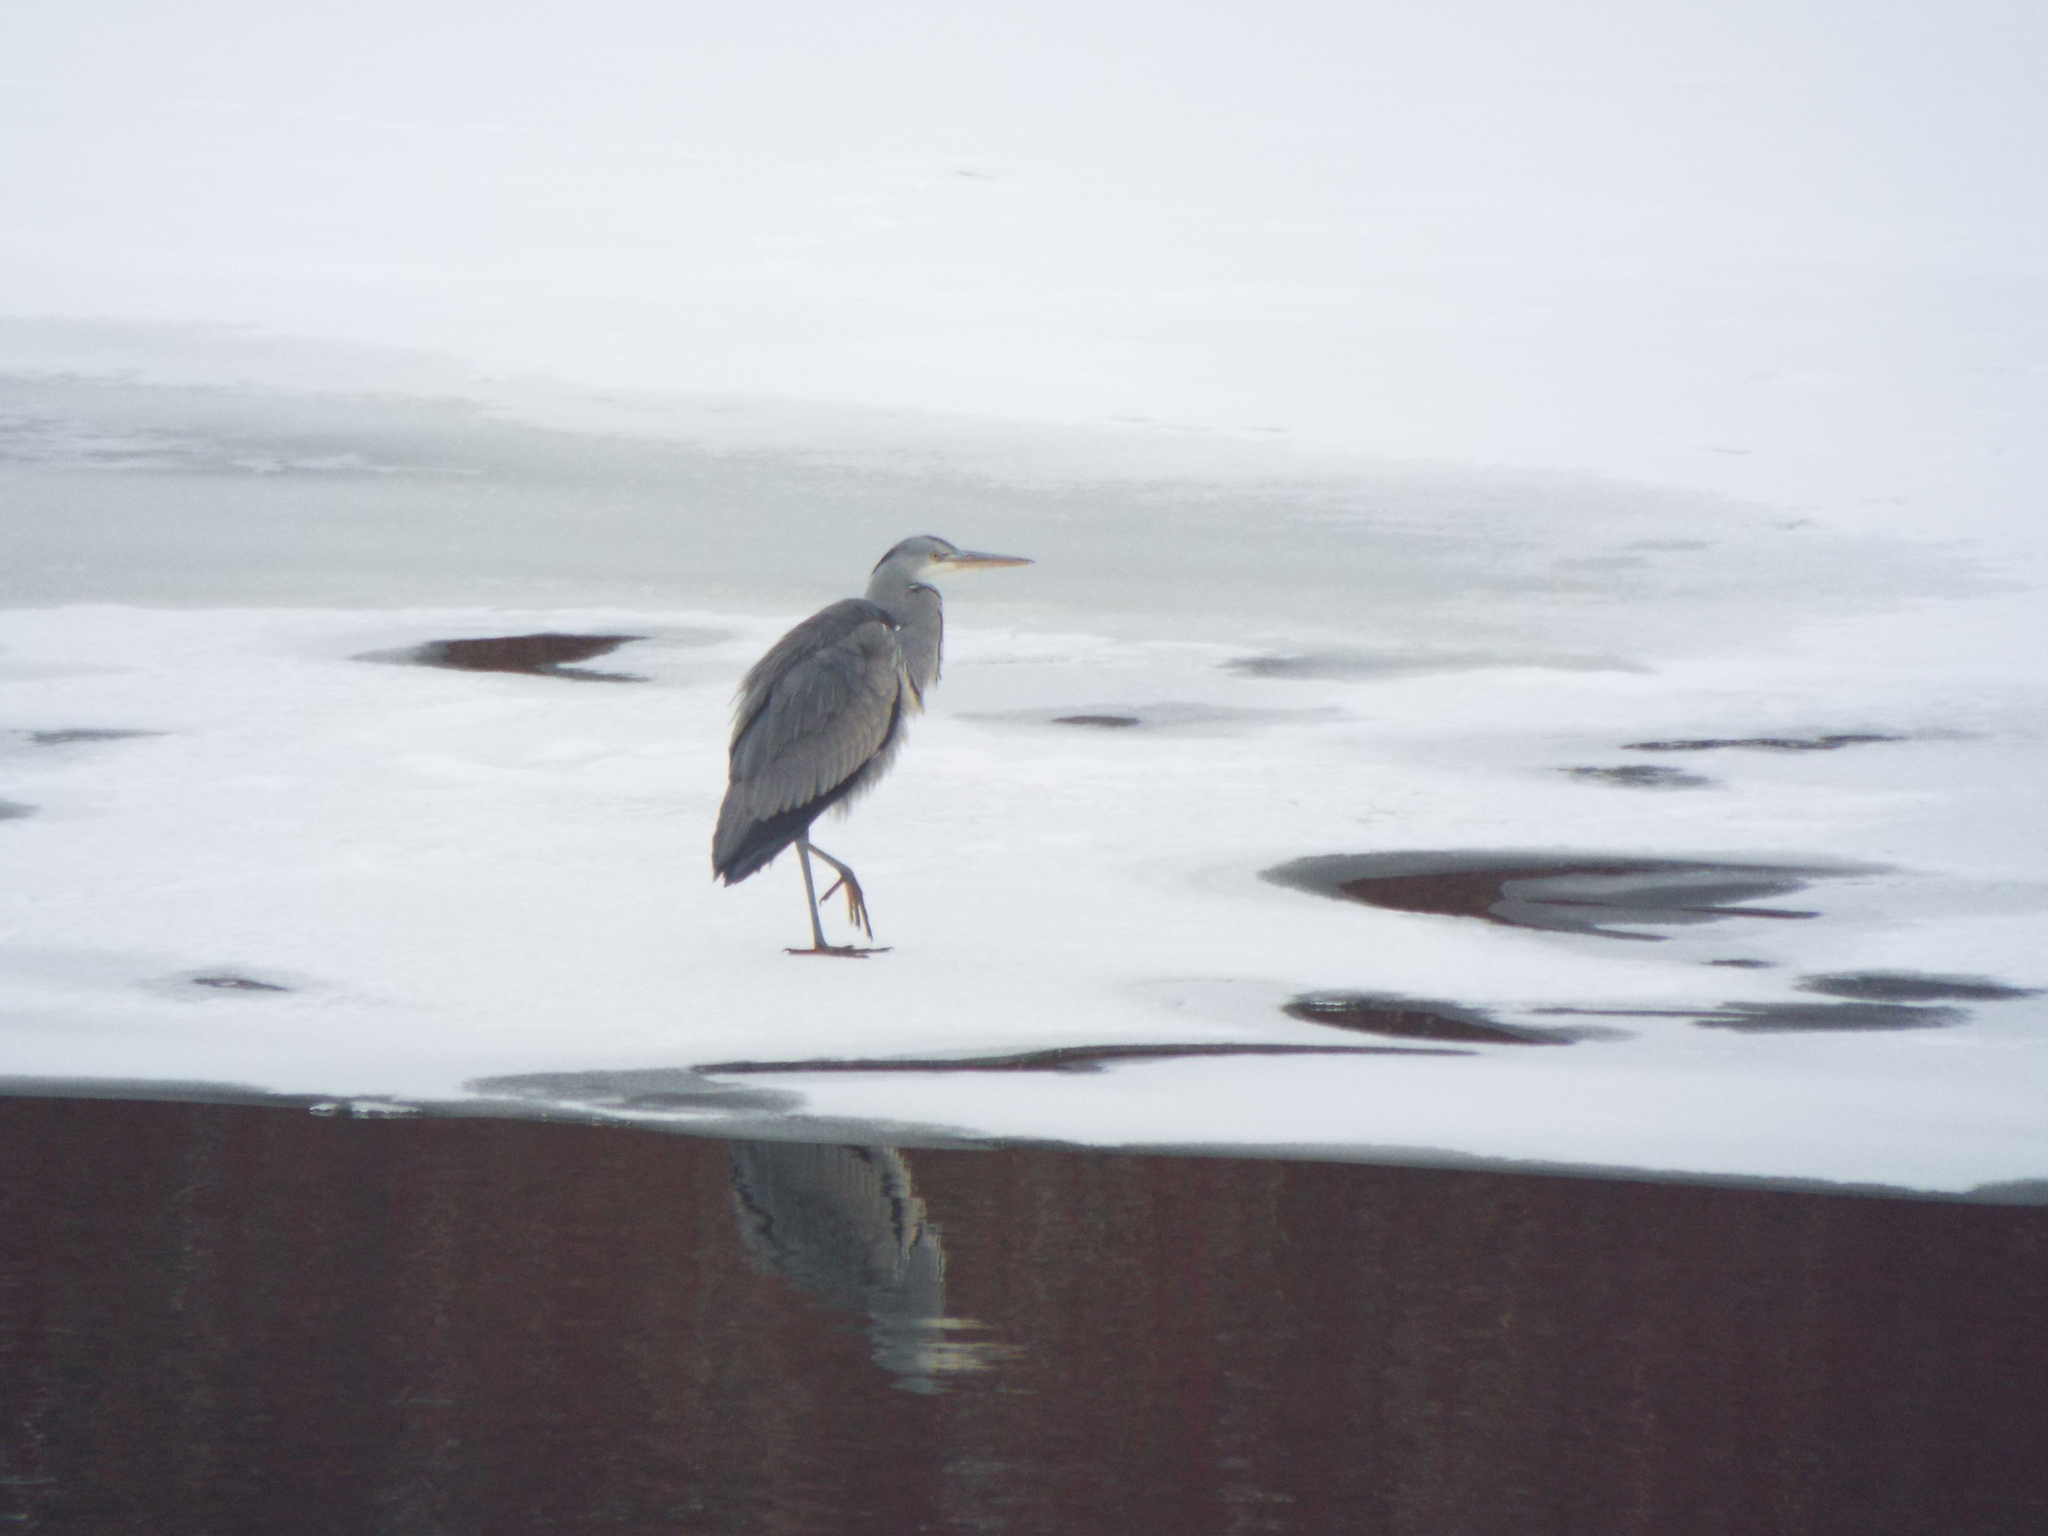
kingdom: Animalia
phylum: Chordata
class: Aves
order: Pelecaniformes
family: Ardeidae
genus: Ardea
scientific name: Ardea cinerea
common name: Grey heron
